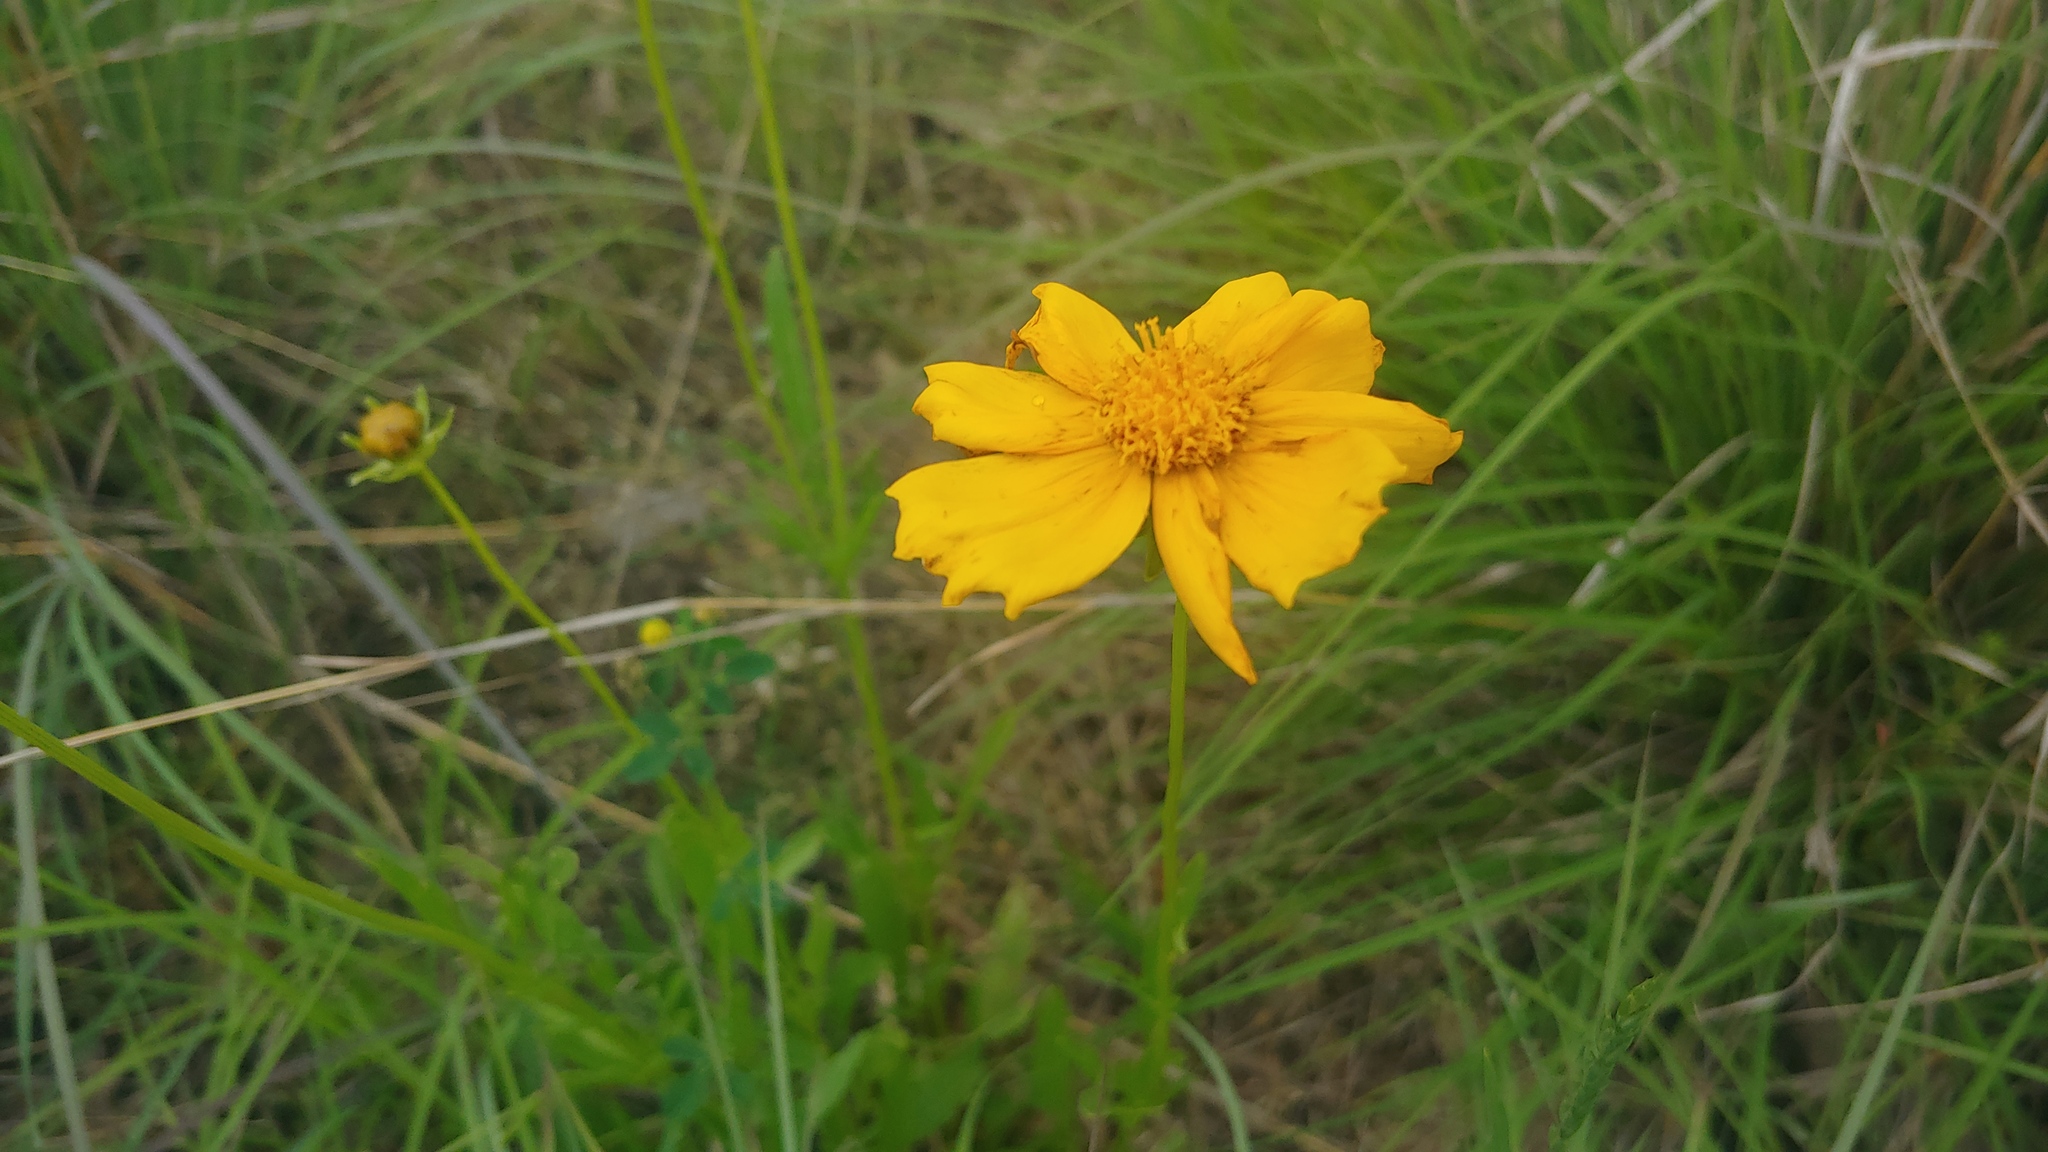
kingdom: Plantae
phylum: Tracheophyta
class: Magnoliopsida
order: Asterales
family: Asteraceae
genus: Coreopsis
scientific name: Coreopsis lanceolata
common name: Garden coreopsis
